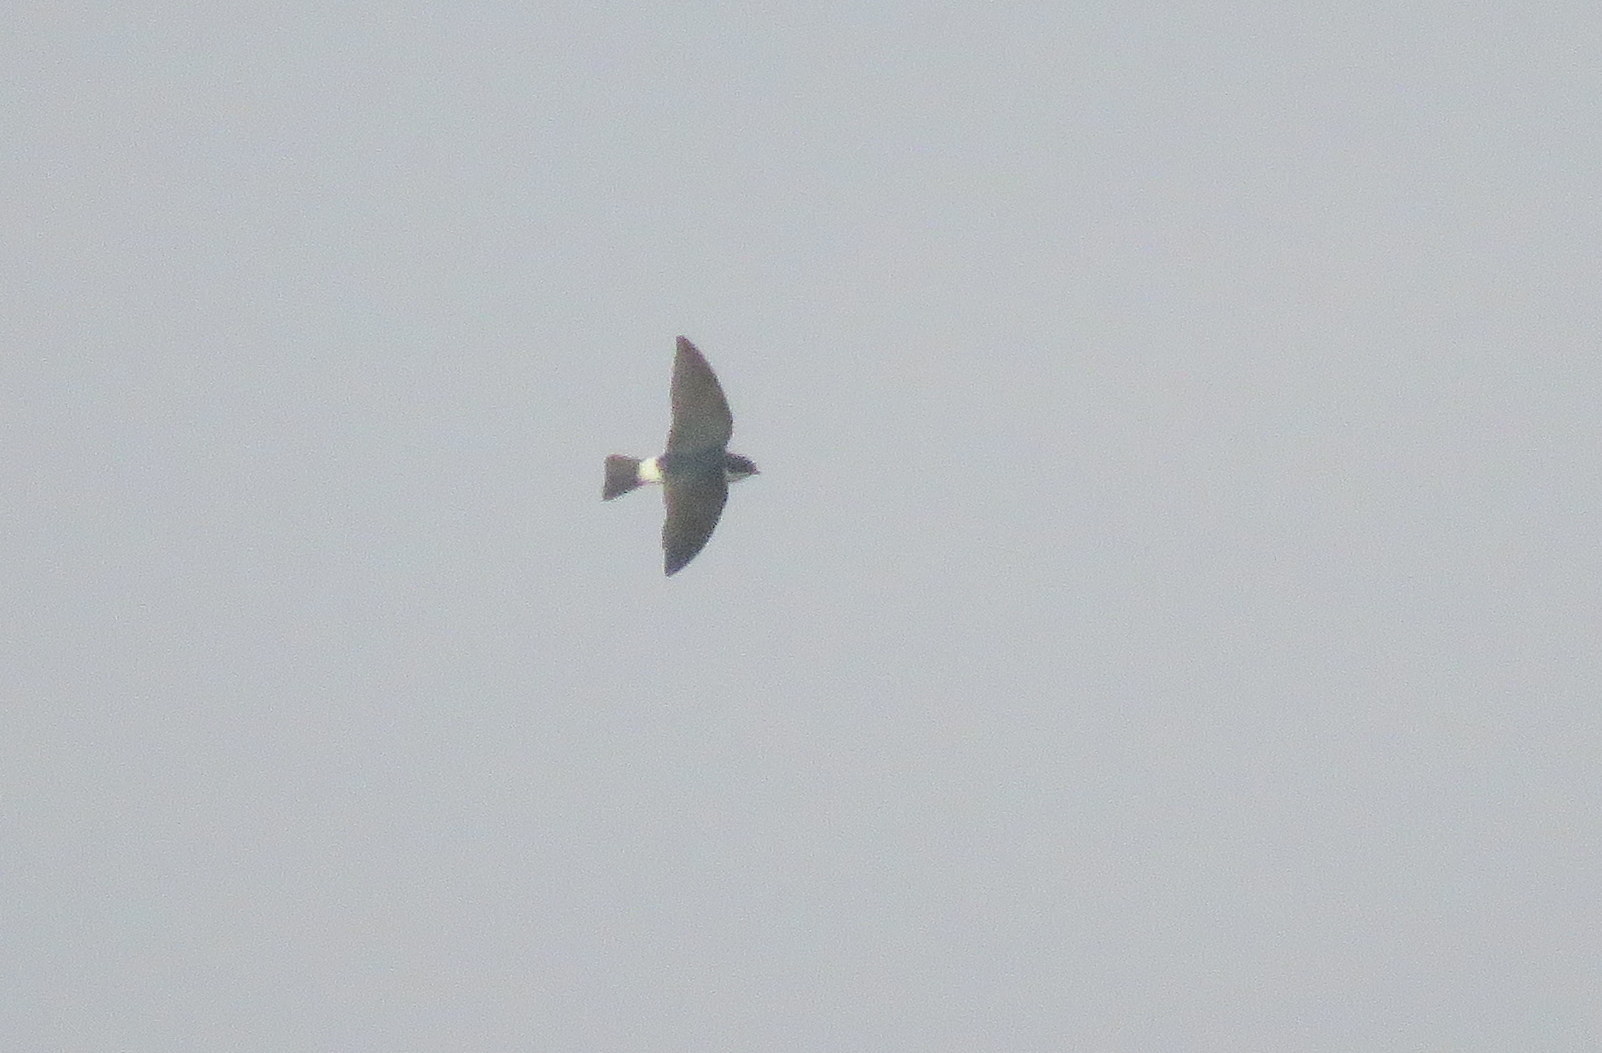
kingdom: Animalia
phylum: Chordata
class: Aves
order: Passeriformes
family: Hirundinidae
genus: Tachycineta
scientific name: Tachycineta leucopyga
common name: Chilean swallow
